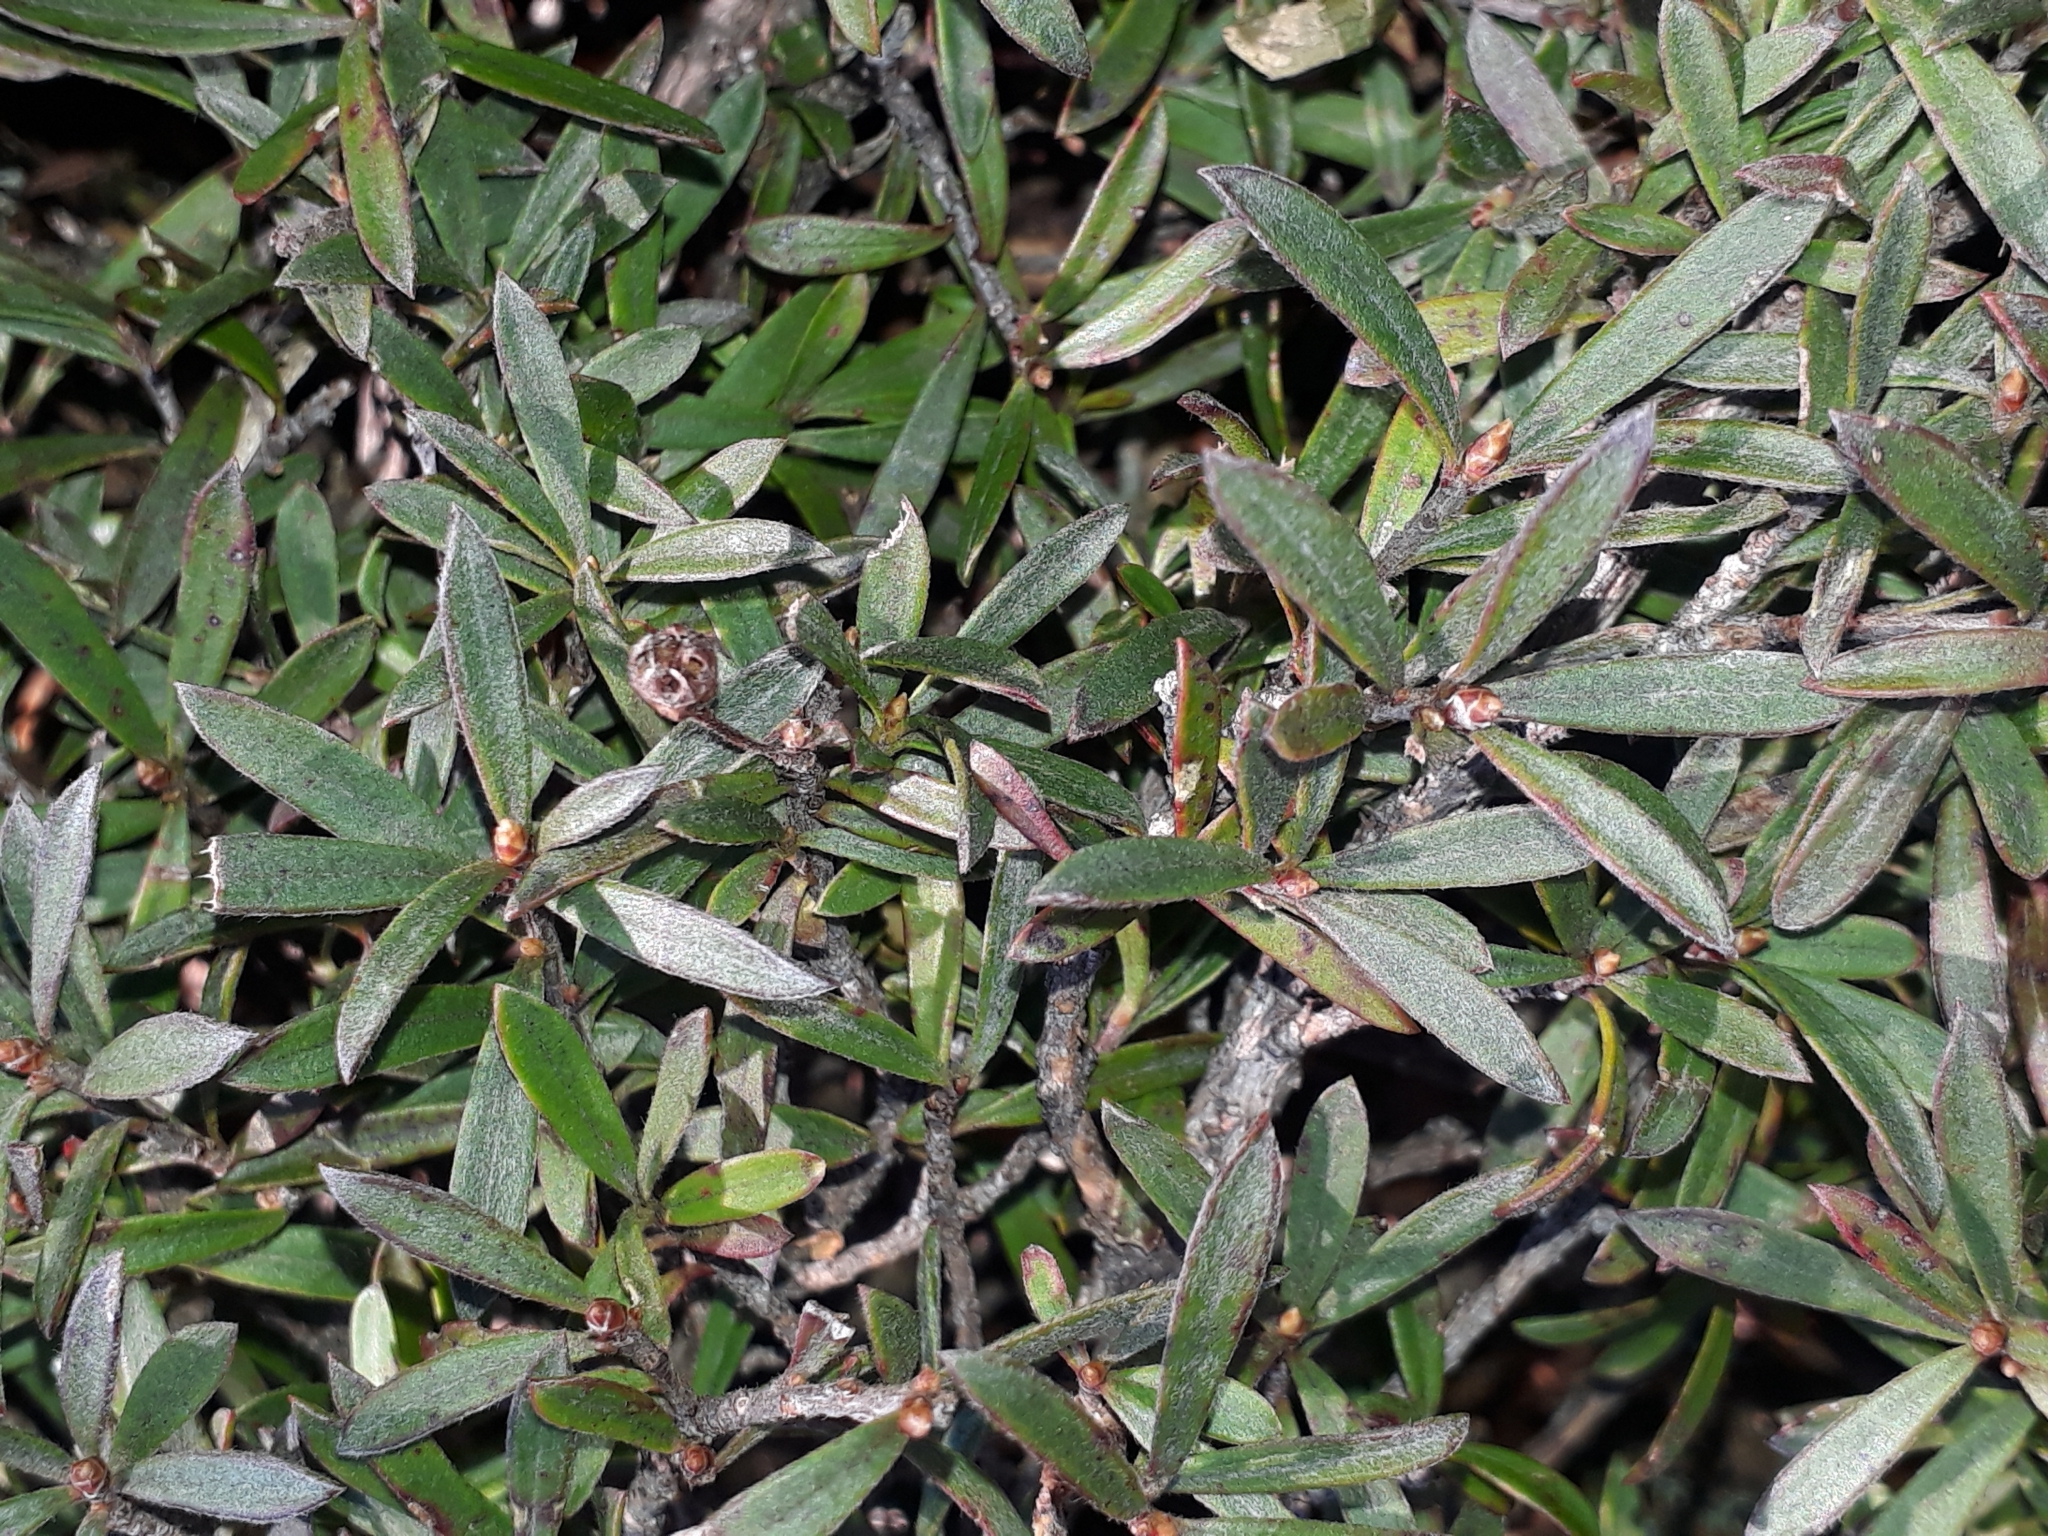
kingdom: Plantae
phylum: Tracheophyta
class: Magnoliopsida
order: Myrtales
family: Myrtaceae
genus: Kunzea
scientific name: Kunzea sinclairii
